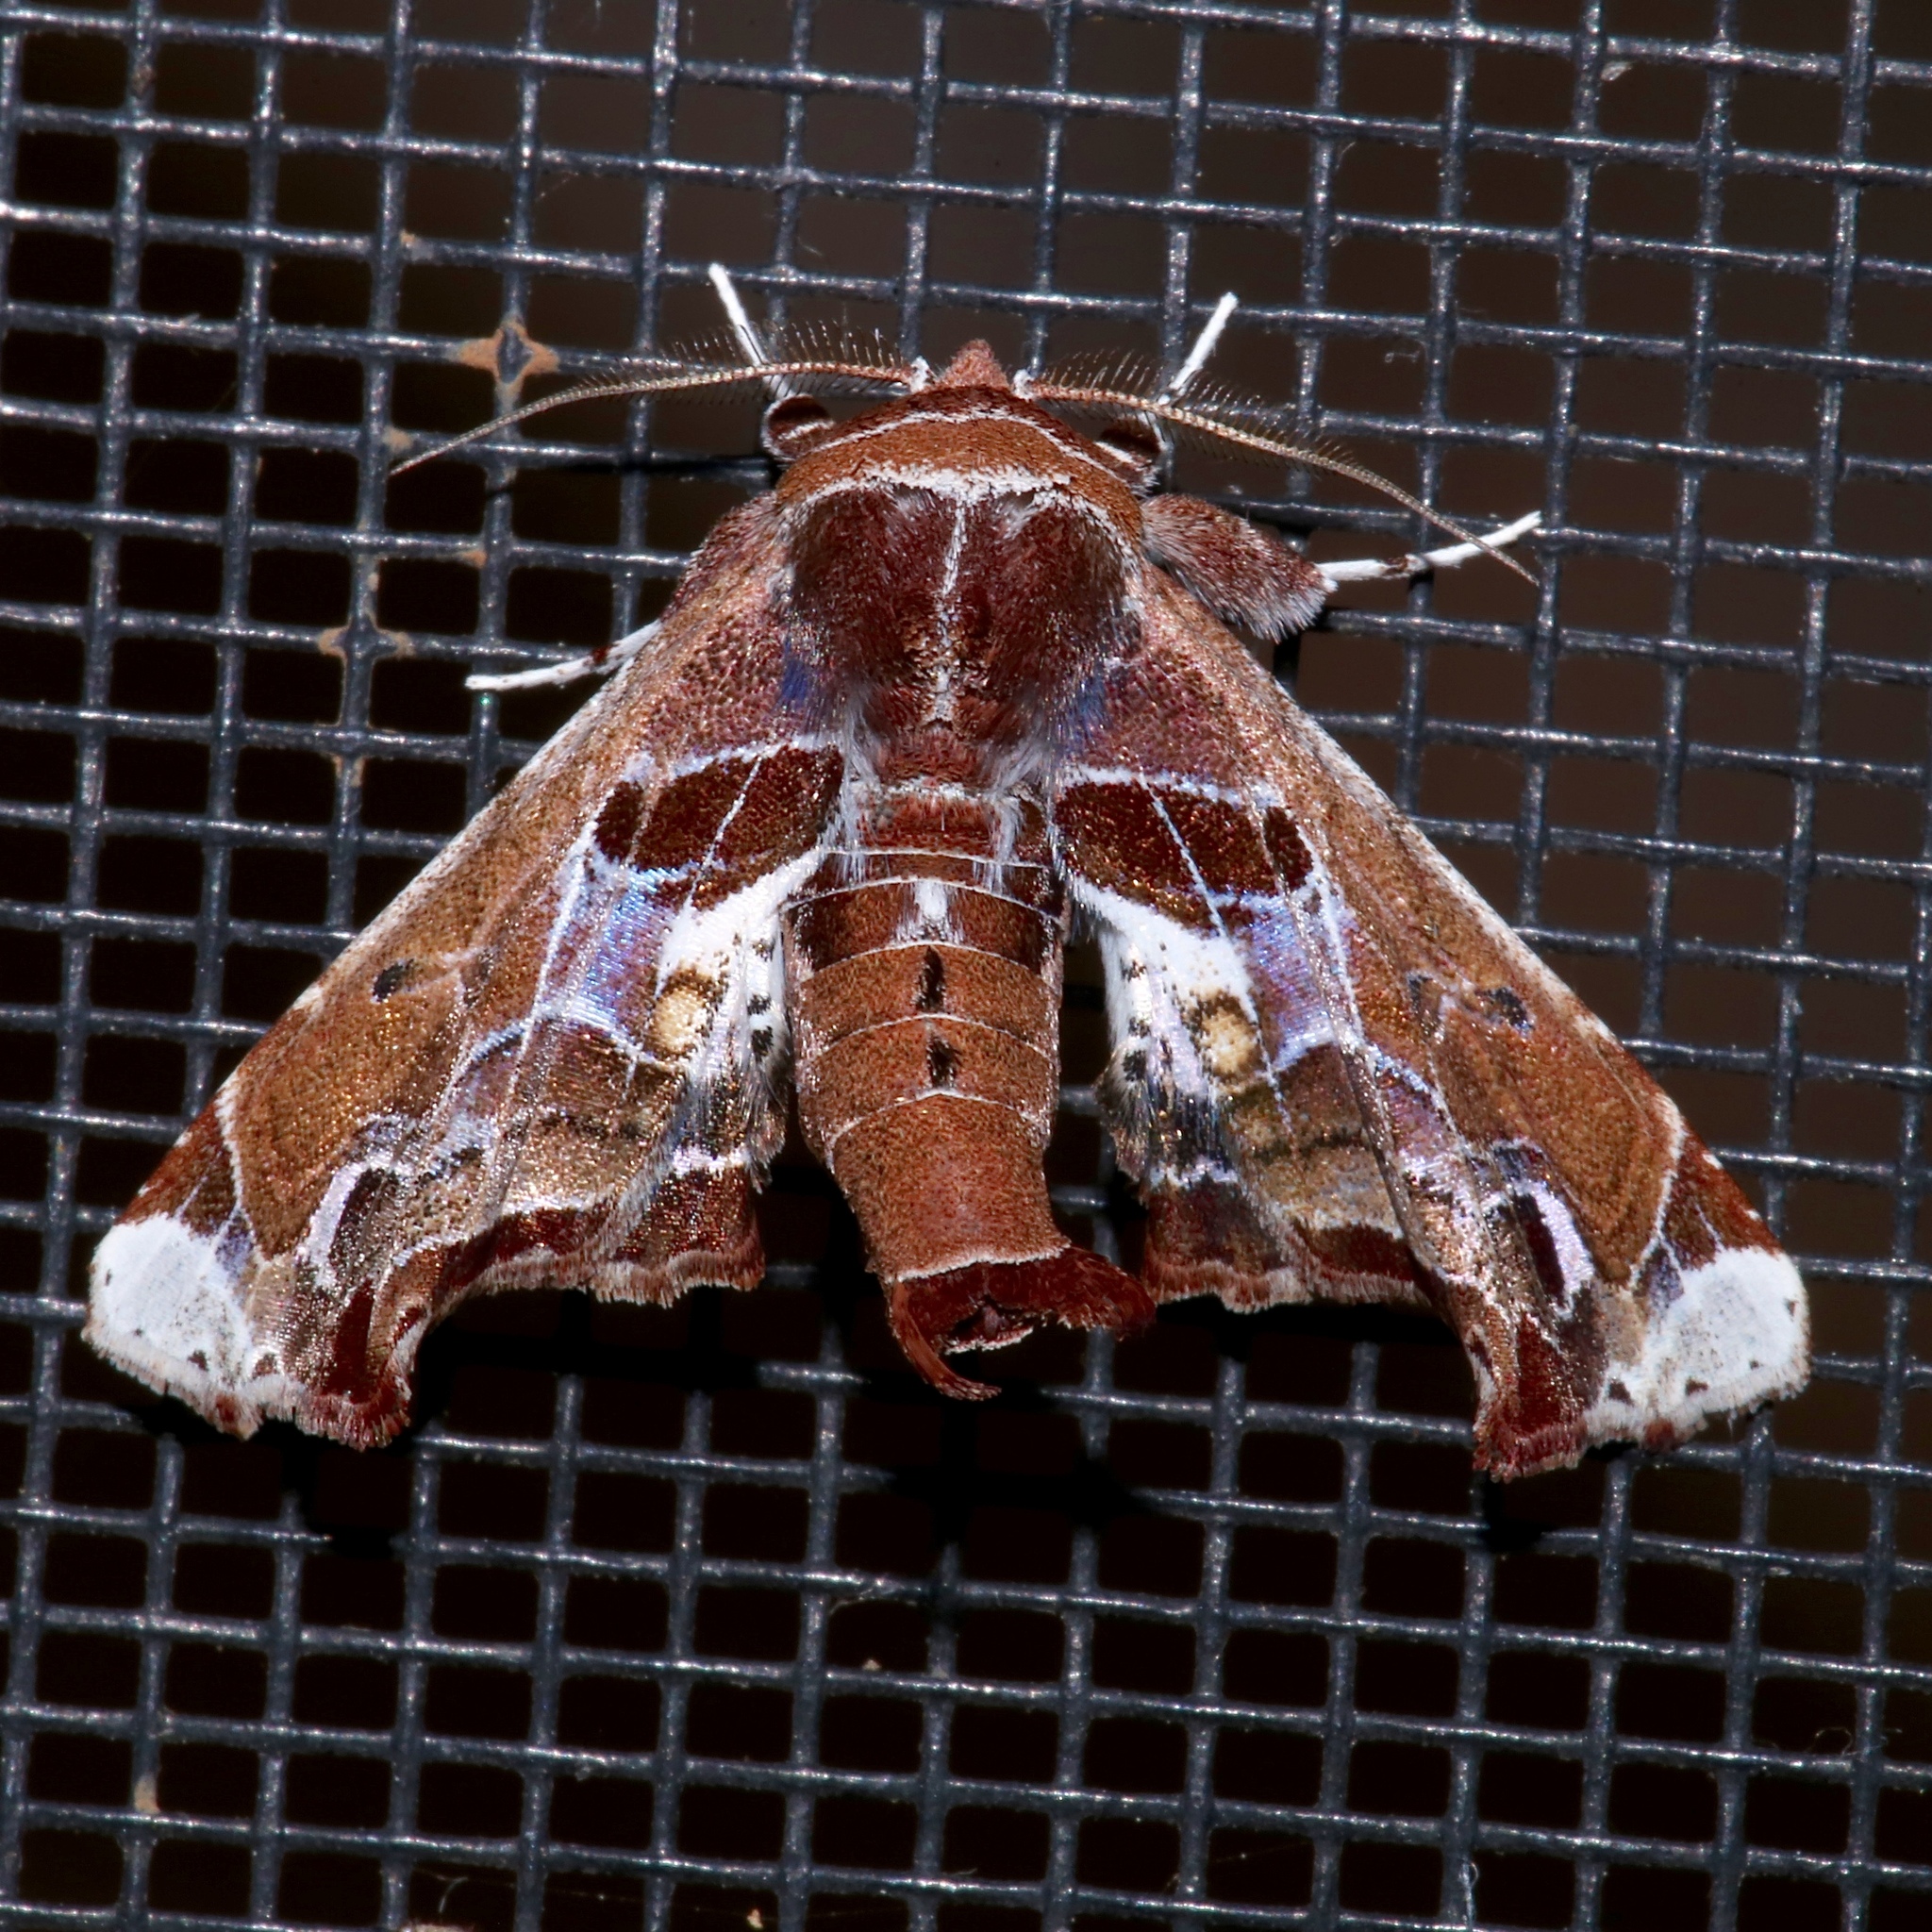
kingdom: Animalia
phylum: Arthropoda
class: Insecta
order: Lepidoptera
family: Euteliidae
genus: Eutelia
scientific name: Eutelia pulcherrimus
